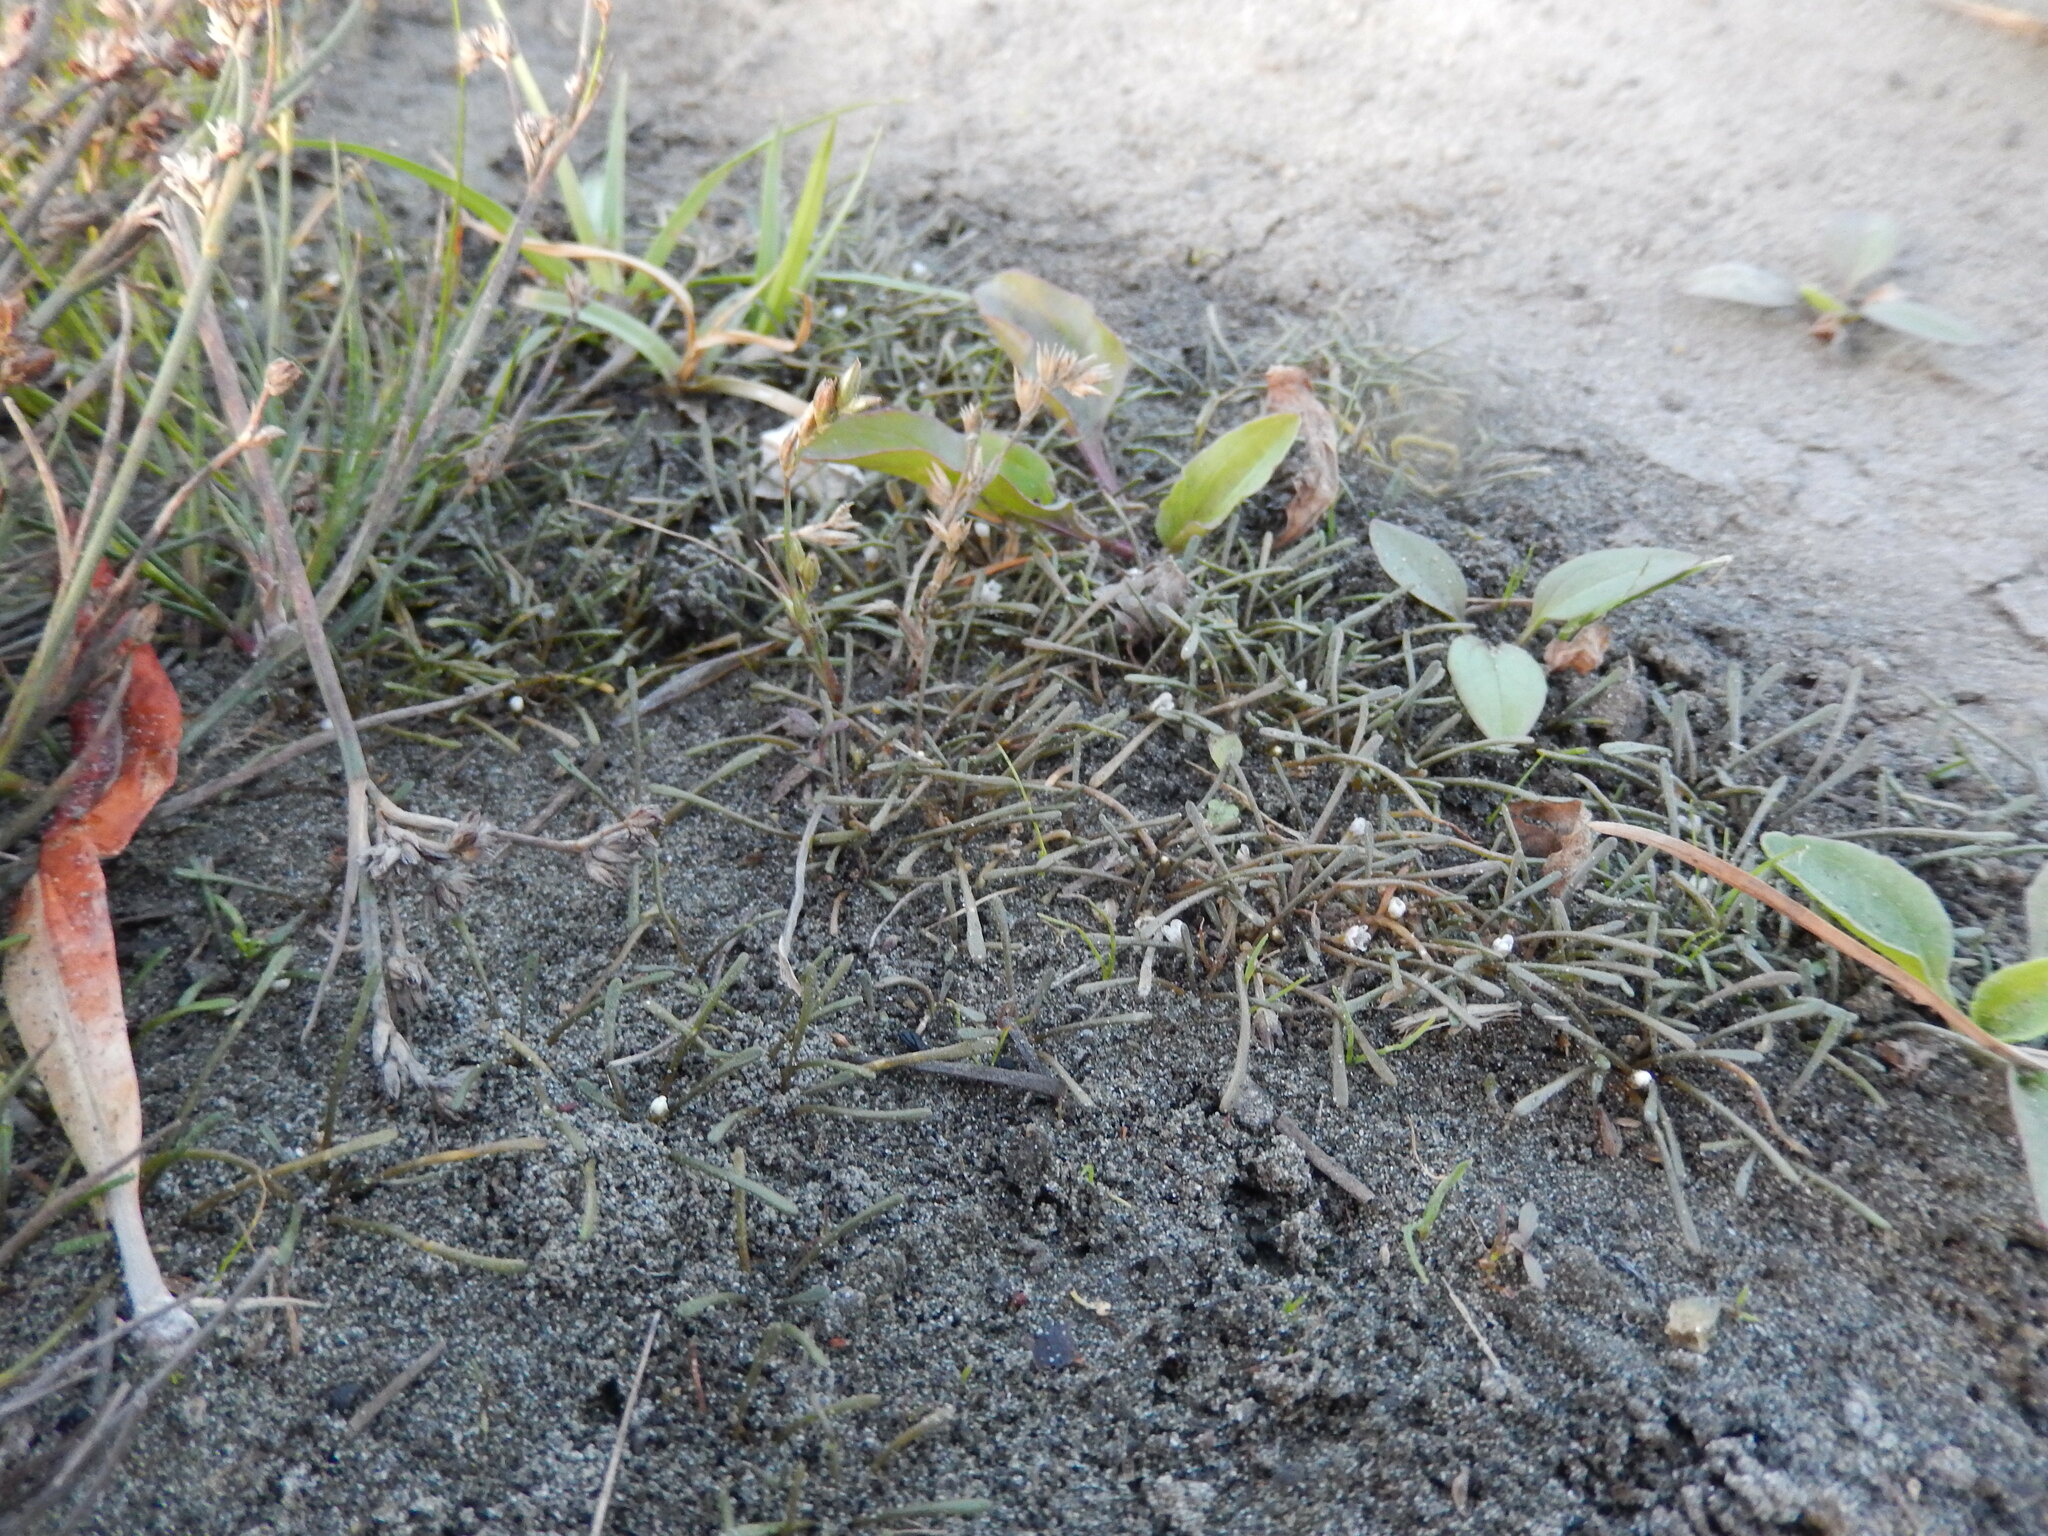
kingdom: Plantae
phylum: Tracheophyta
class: Magnoliopsida
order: Lamiales
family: Scrophulariaceae
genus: Limosella
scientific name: Limosella australis
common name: Welsh mudwort
